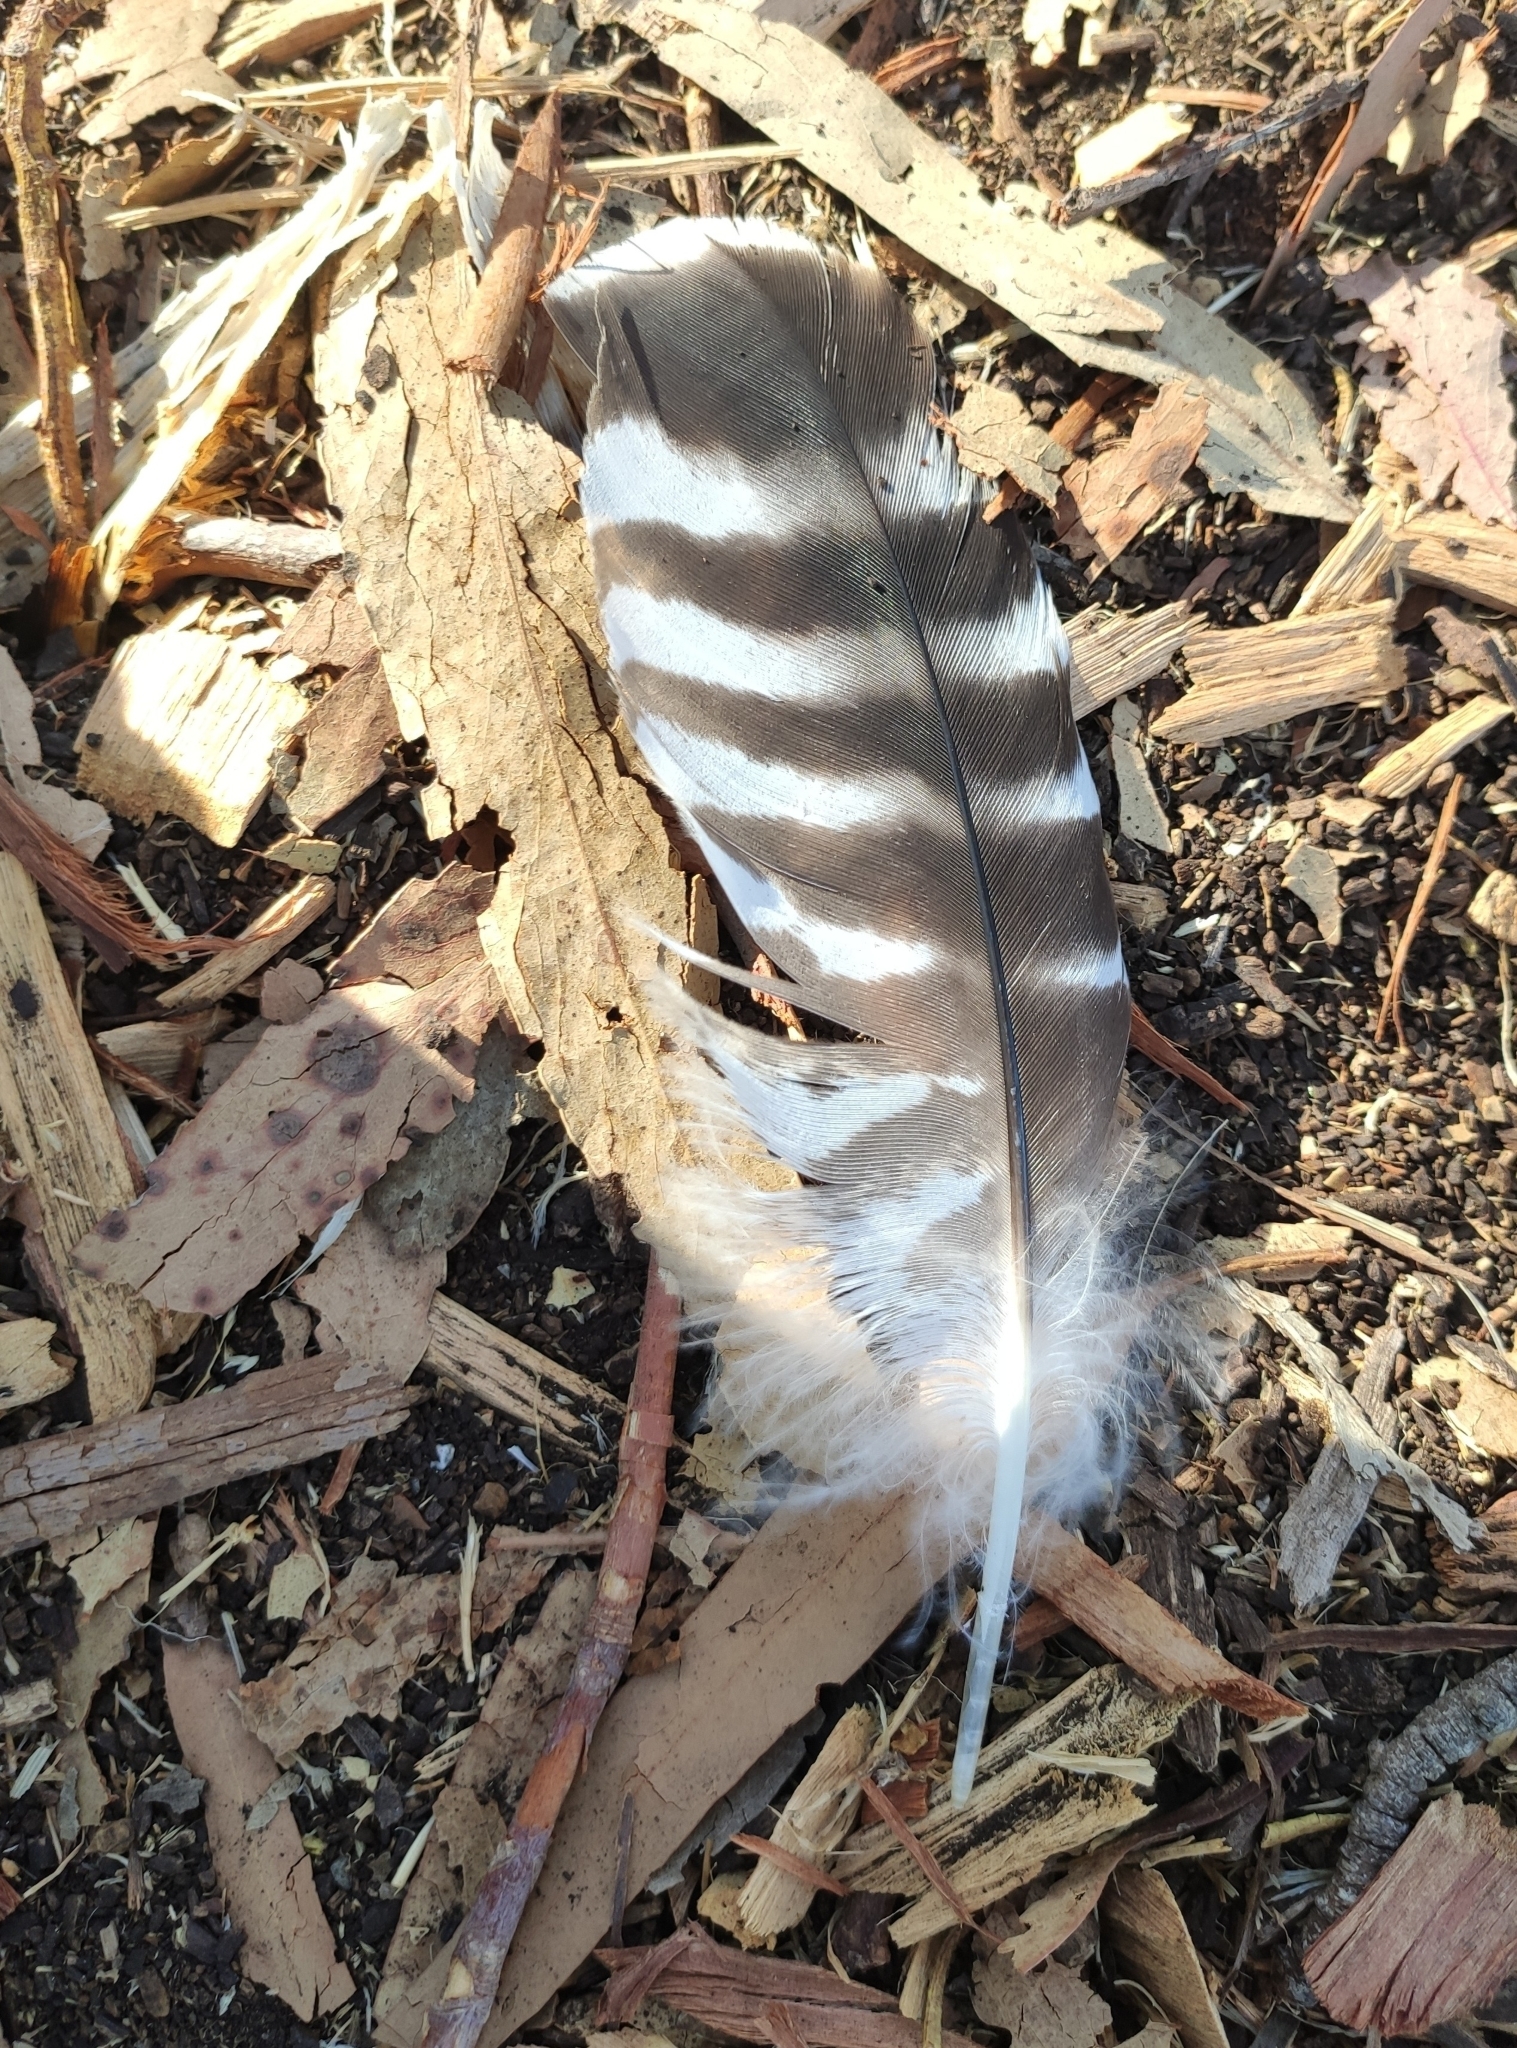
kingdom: Animalia
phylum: Chordata
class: Aves
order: Accipitriformes
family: Accipitridae
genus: Buteo
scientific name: Buteo lineatus
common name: Red-shouldered hawk
